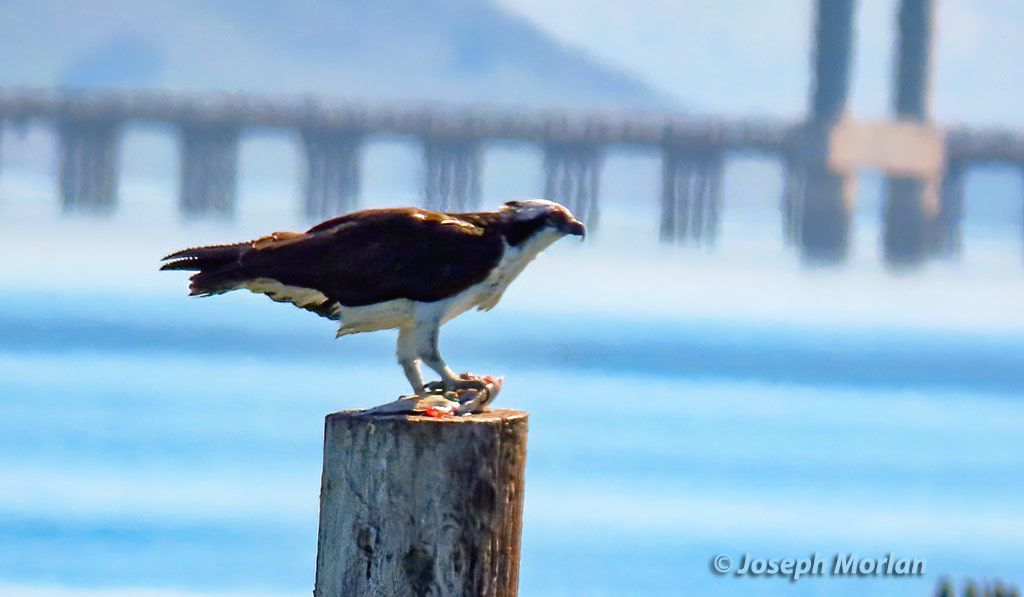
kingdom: Animalia
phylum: Chordata
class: Aves
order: Accipitriformes
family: Pandionidae
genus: Pandion
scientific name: Pandion haliaetus
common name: Osprey
